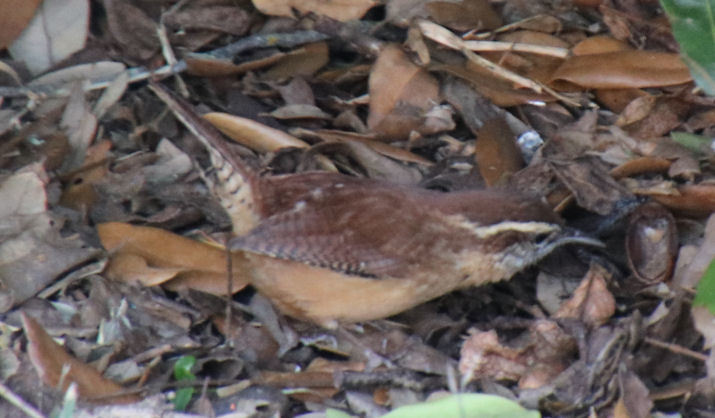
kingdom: Animalia
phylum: Chordata
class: Aves
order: Passeriformes
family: Troglodytidae
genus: Thryothorus
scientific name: Thryothorus ludovicianus
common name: Carolina wren
